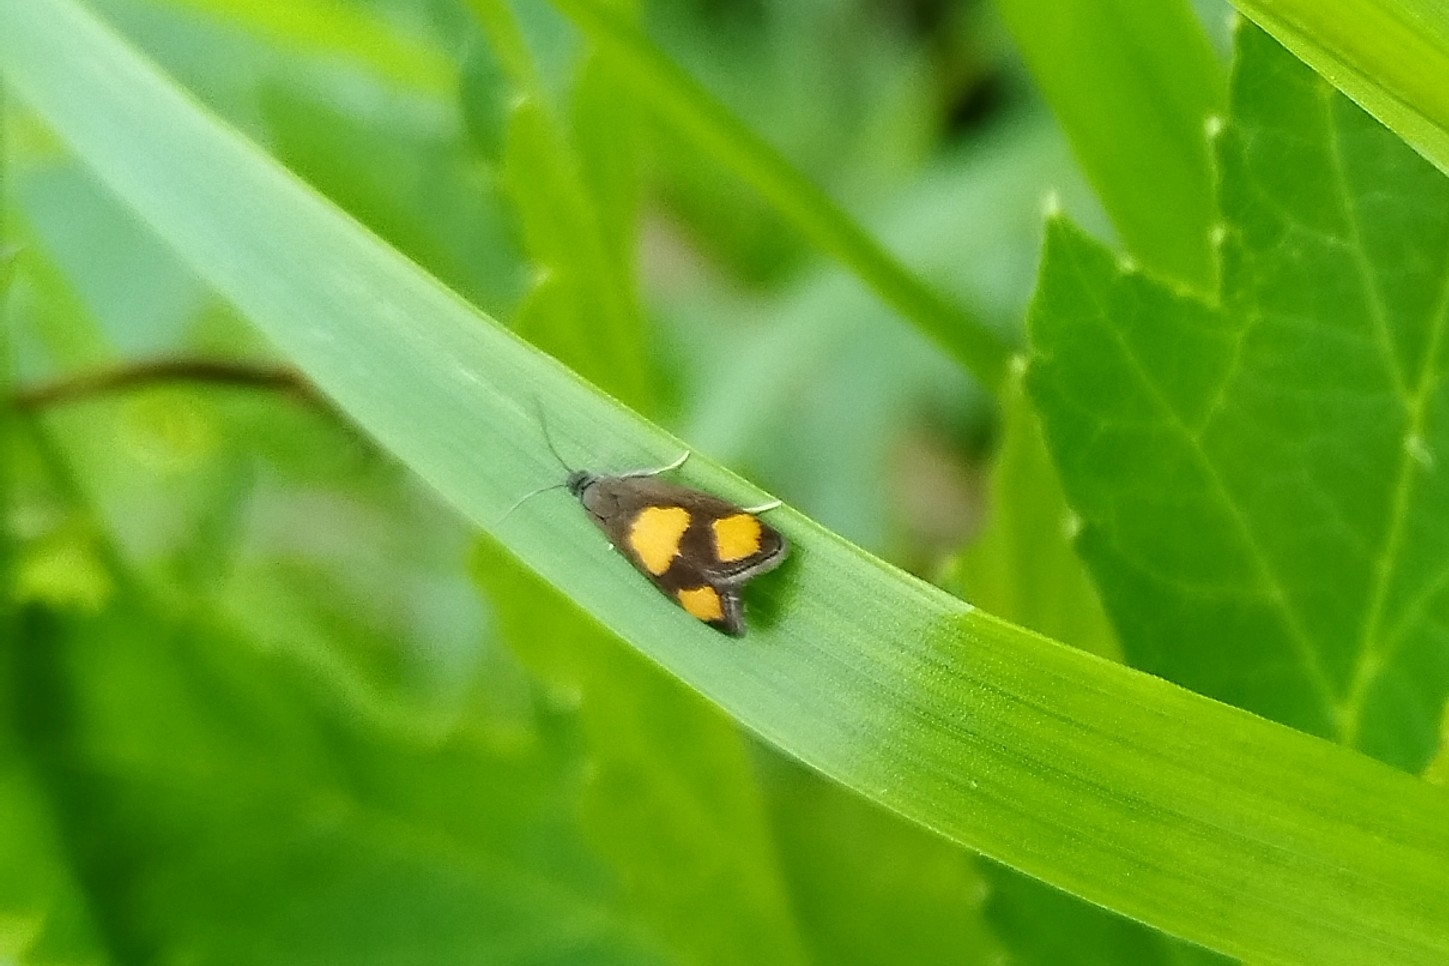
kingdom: Animalia
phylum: Arthropoda
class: Insecta
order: Lepidoptera
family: Tortricidae
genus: Pammene
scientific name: Pammene aurana
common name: Orange-spot piercer
